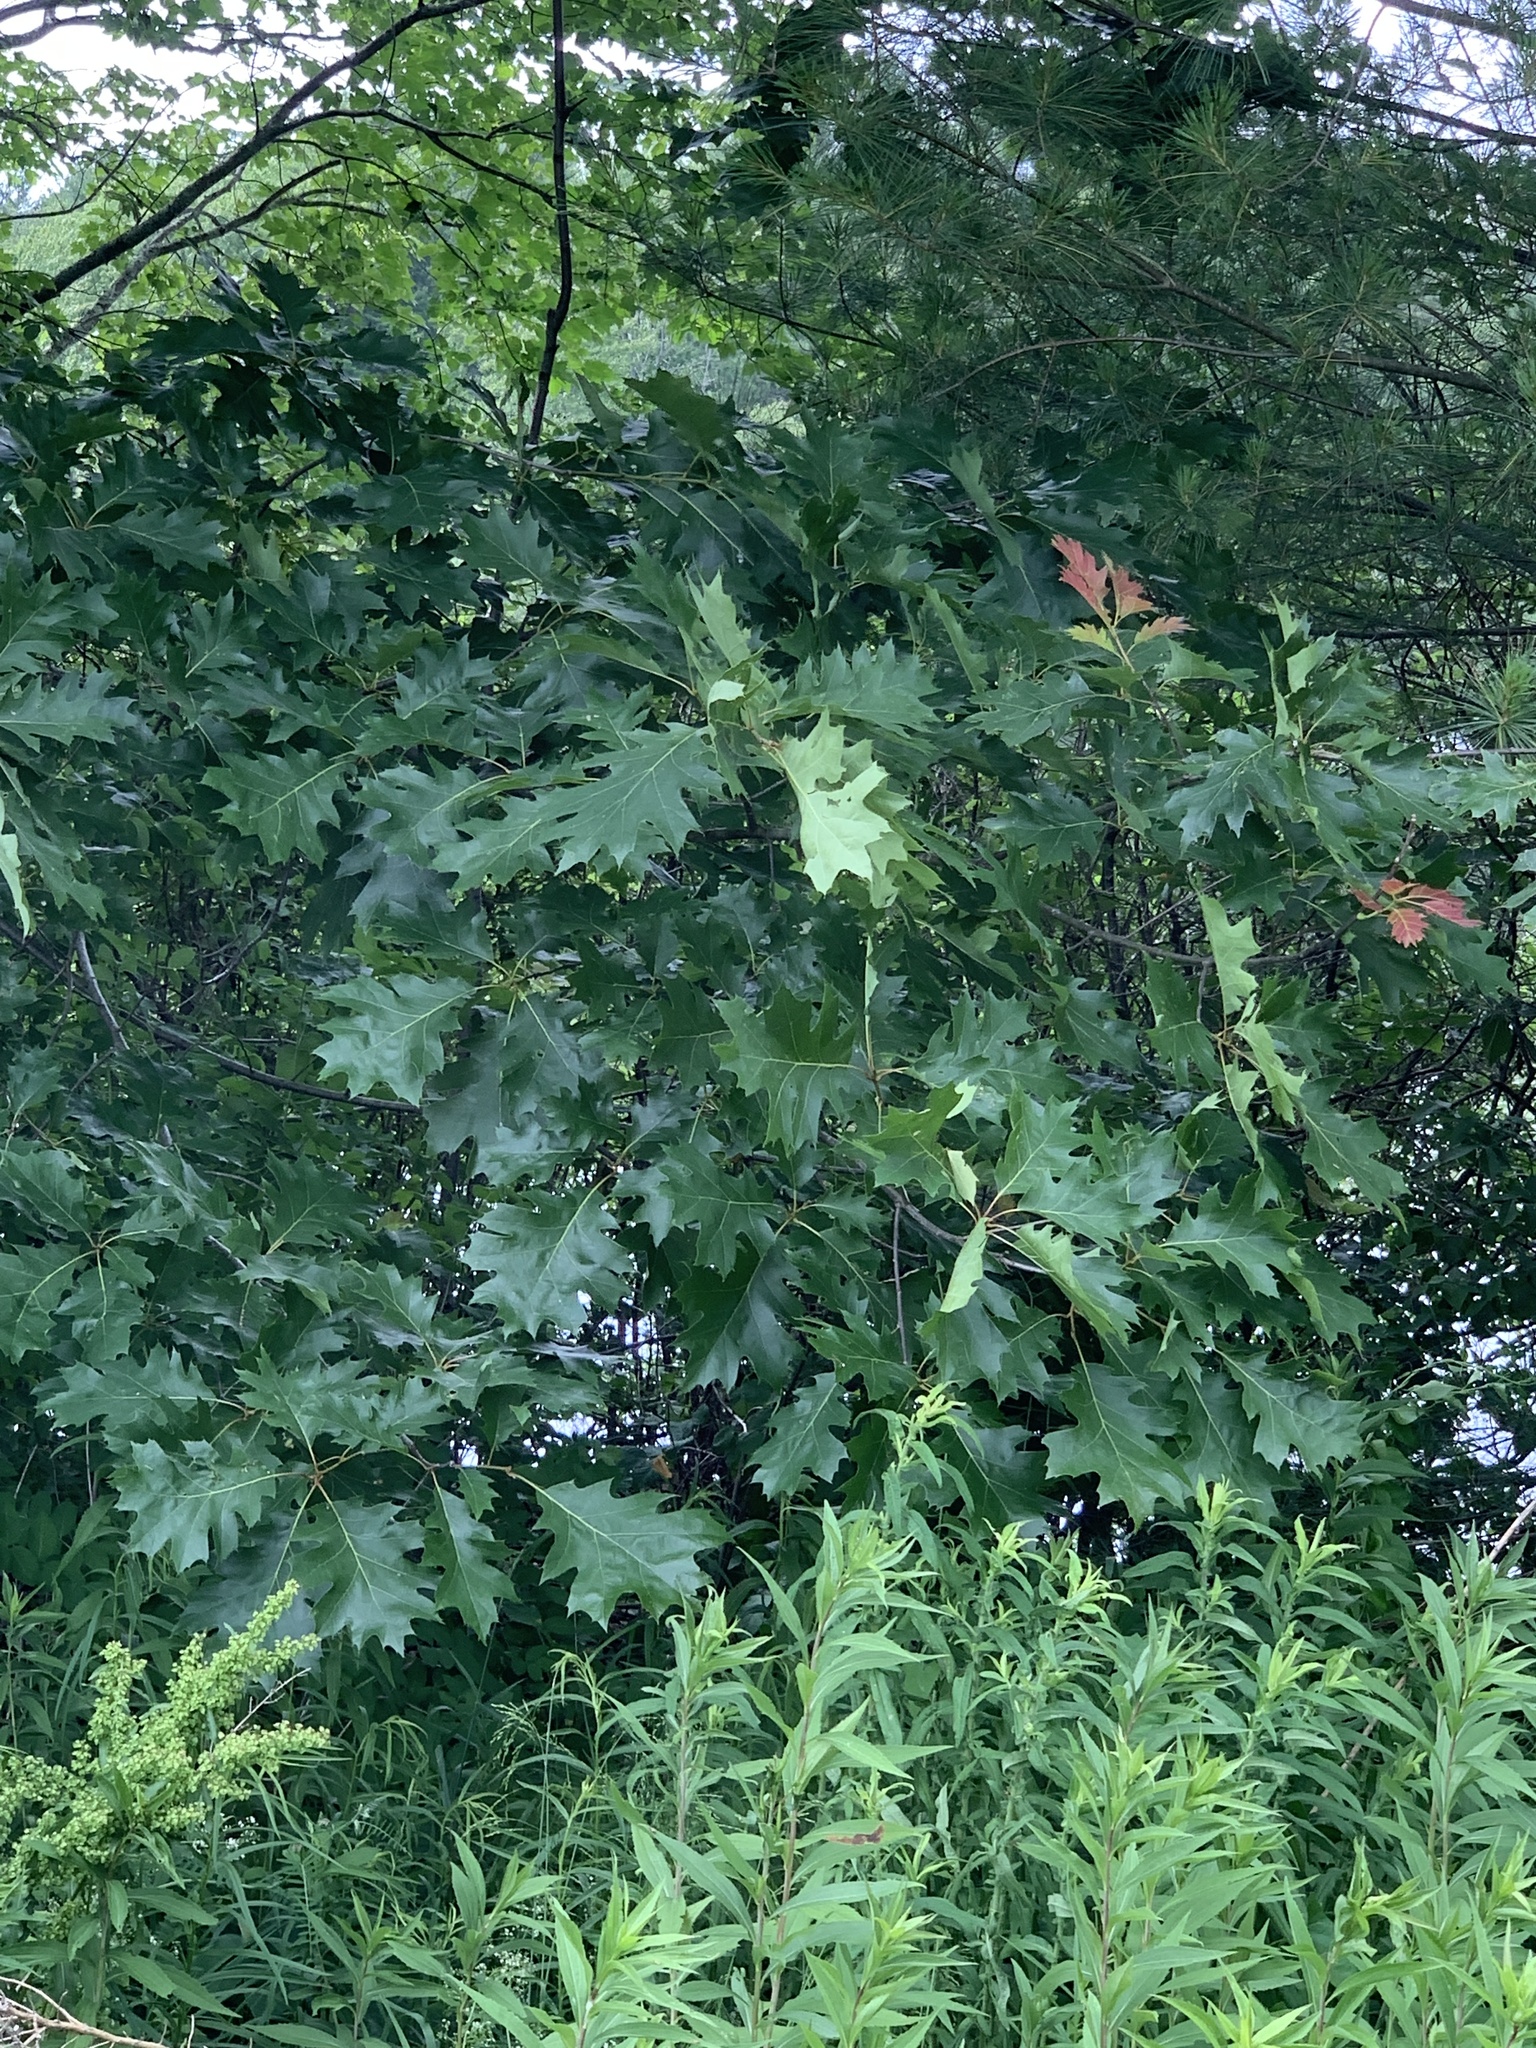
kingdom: Plantae
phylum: Tracheophyta
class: Magnoliopsida
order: Fagales
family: Fagaceae
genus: Quercus
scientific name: Quercus rubra
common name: Red oak
